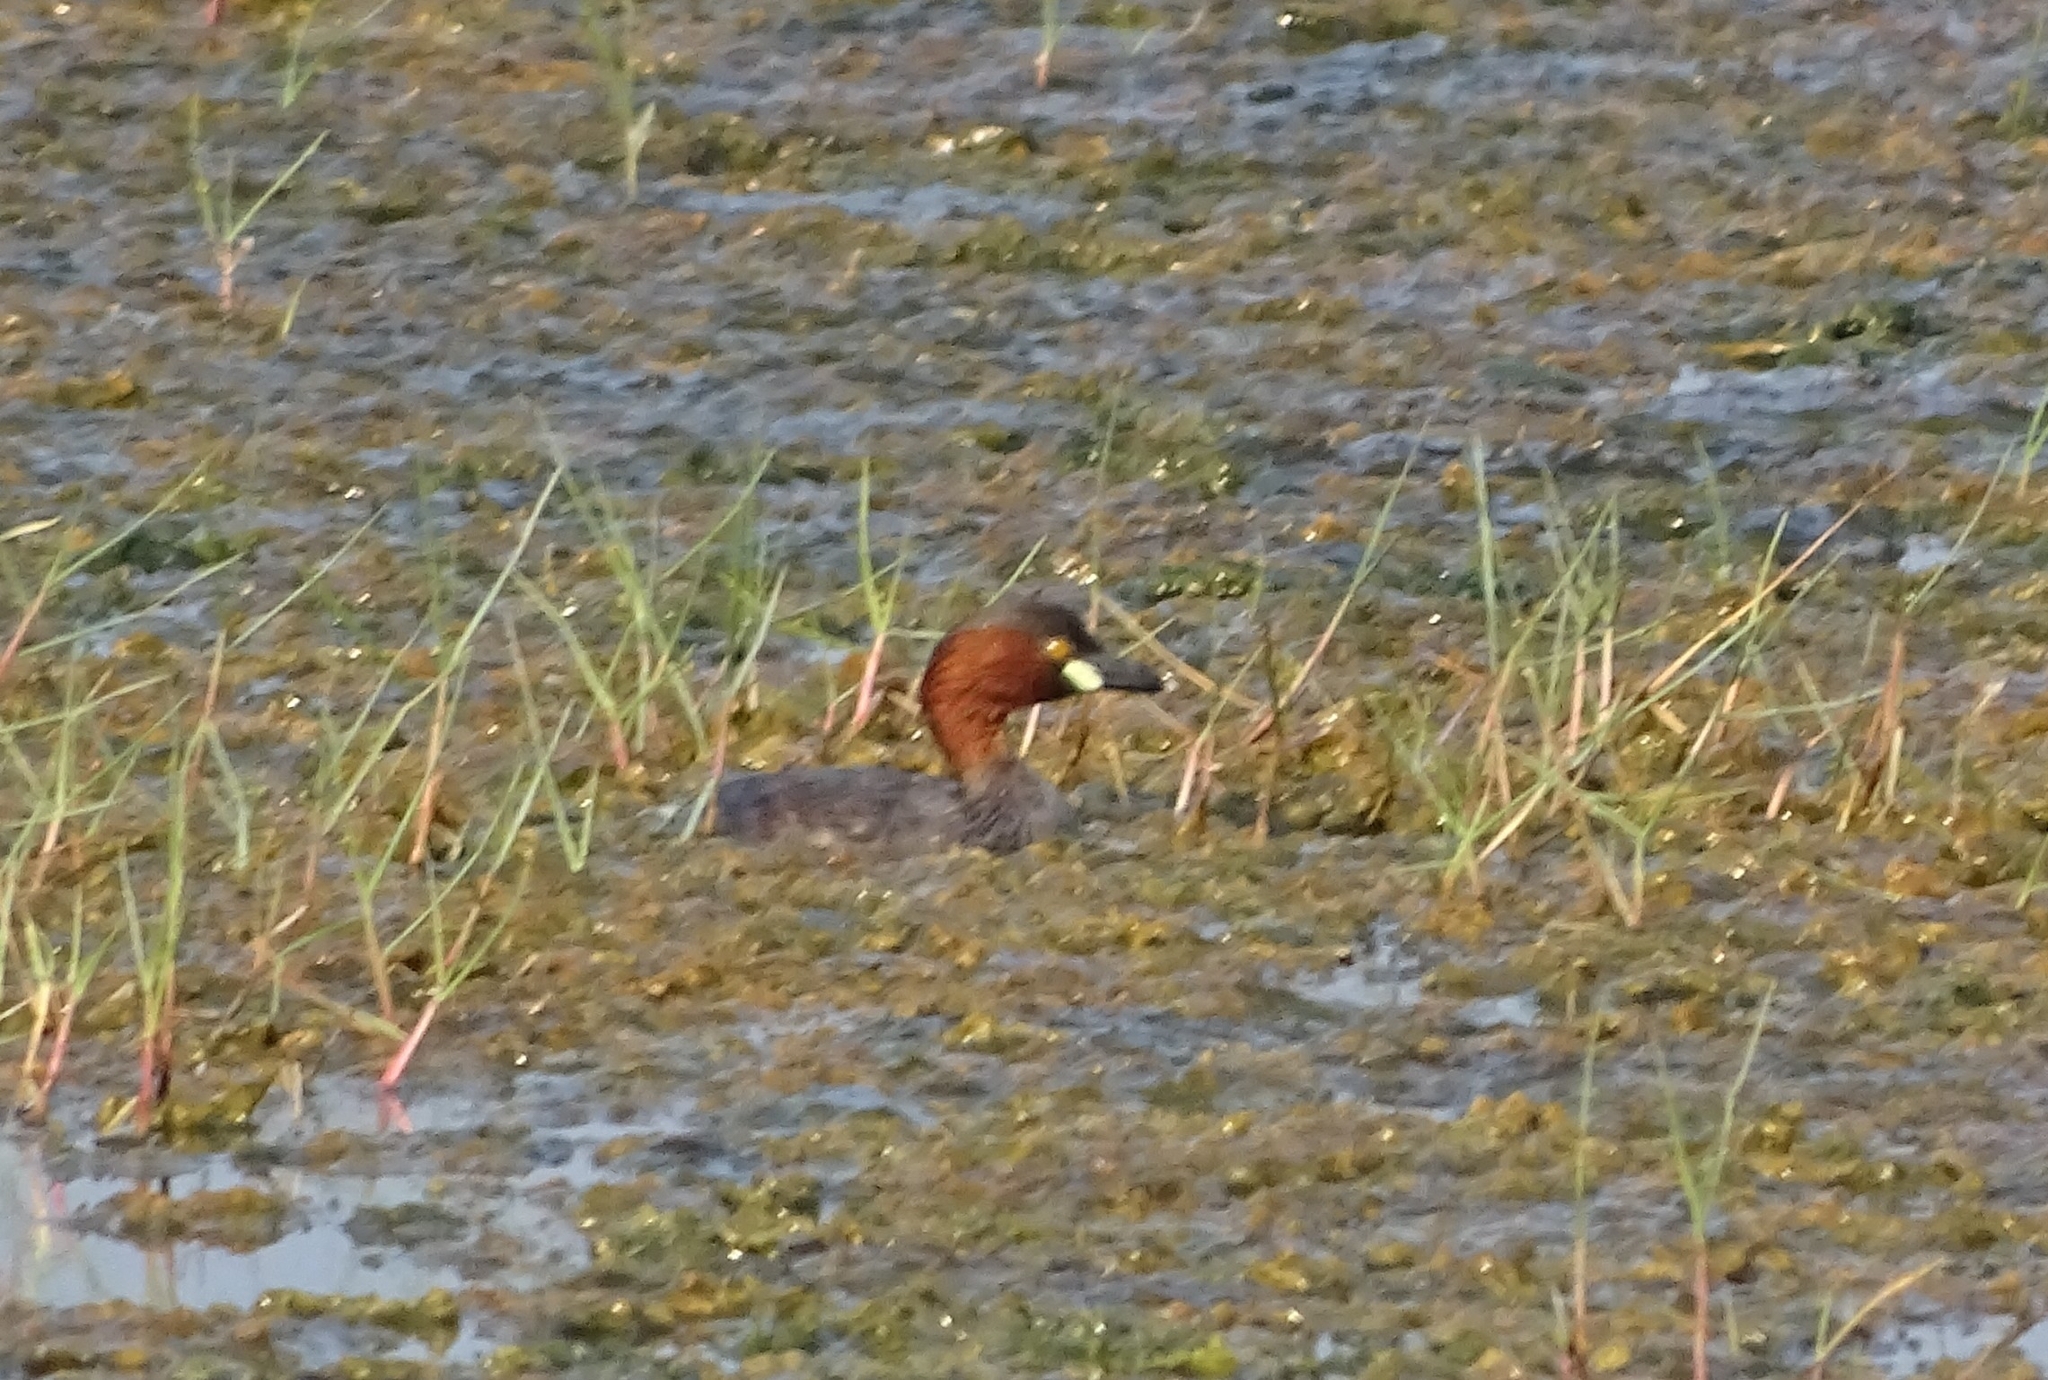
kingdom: Animalia
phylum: Chordata
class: Aves
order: Podicipediformes
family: Podicipedidae
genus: Tachybaptus
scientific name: Tachybaptus ruficollis
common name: Little grebe
